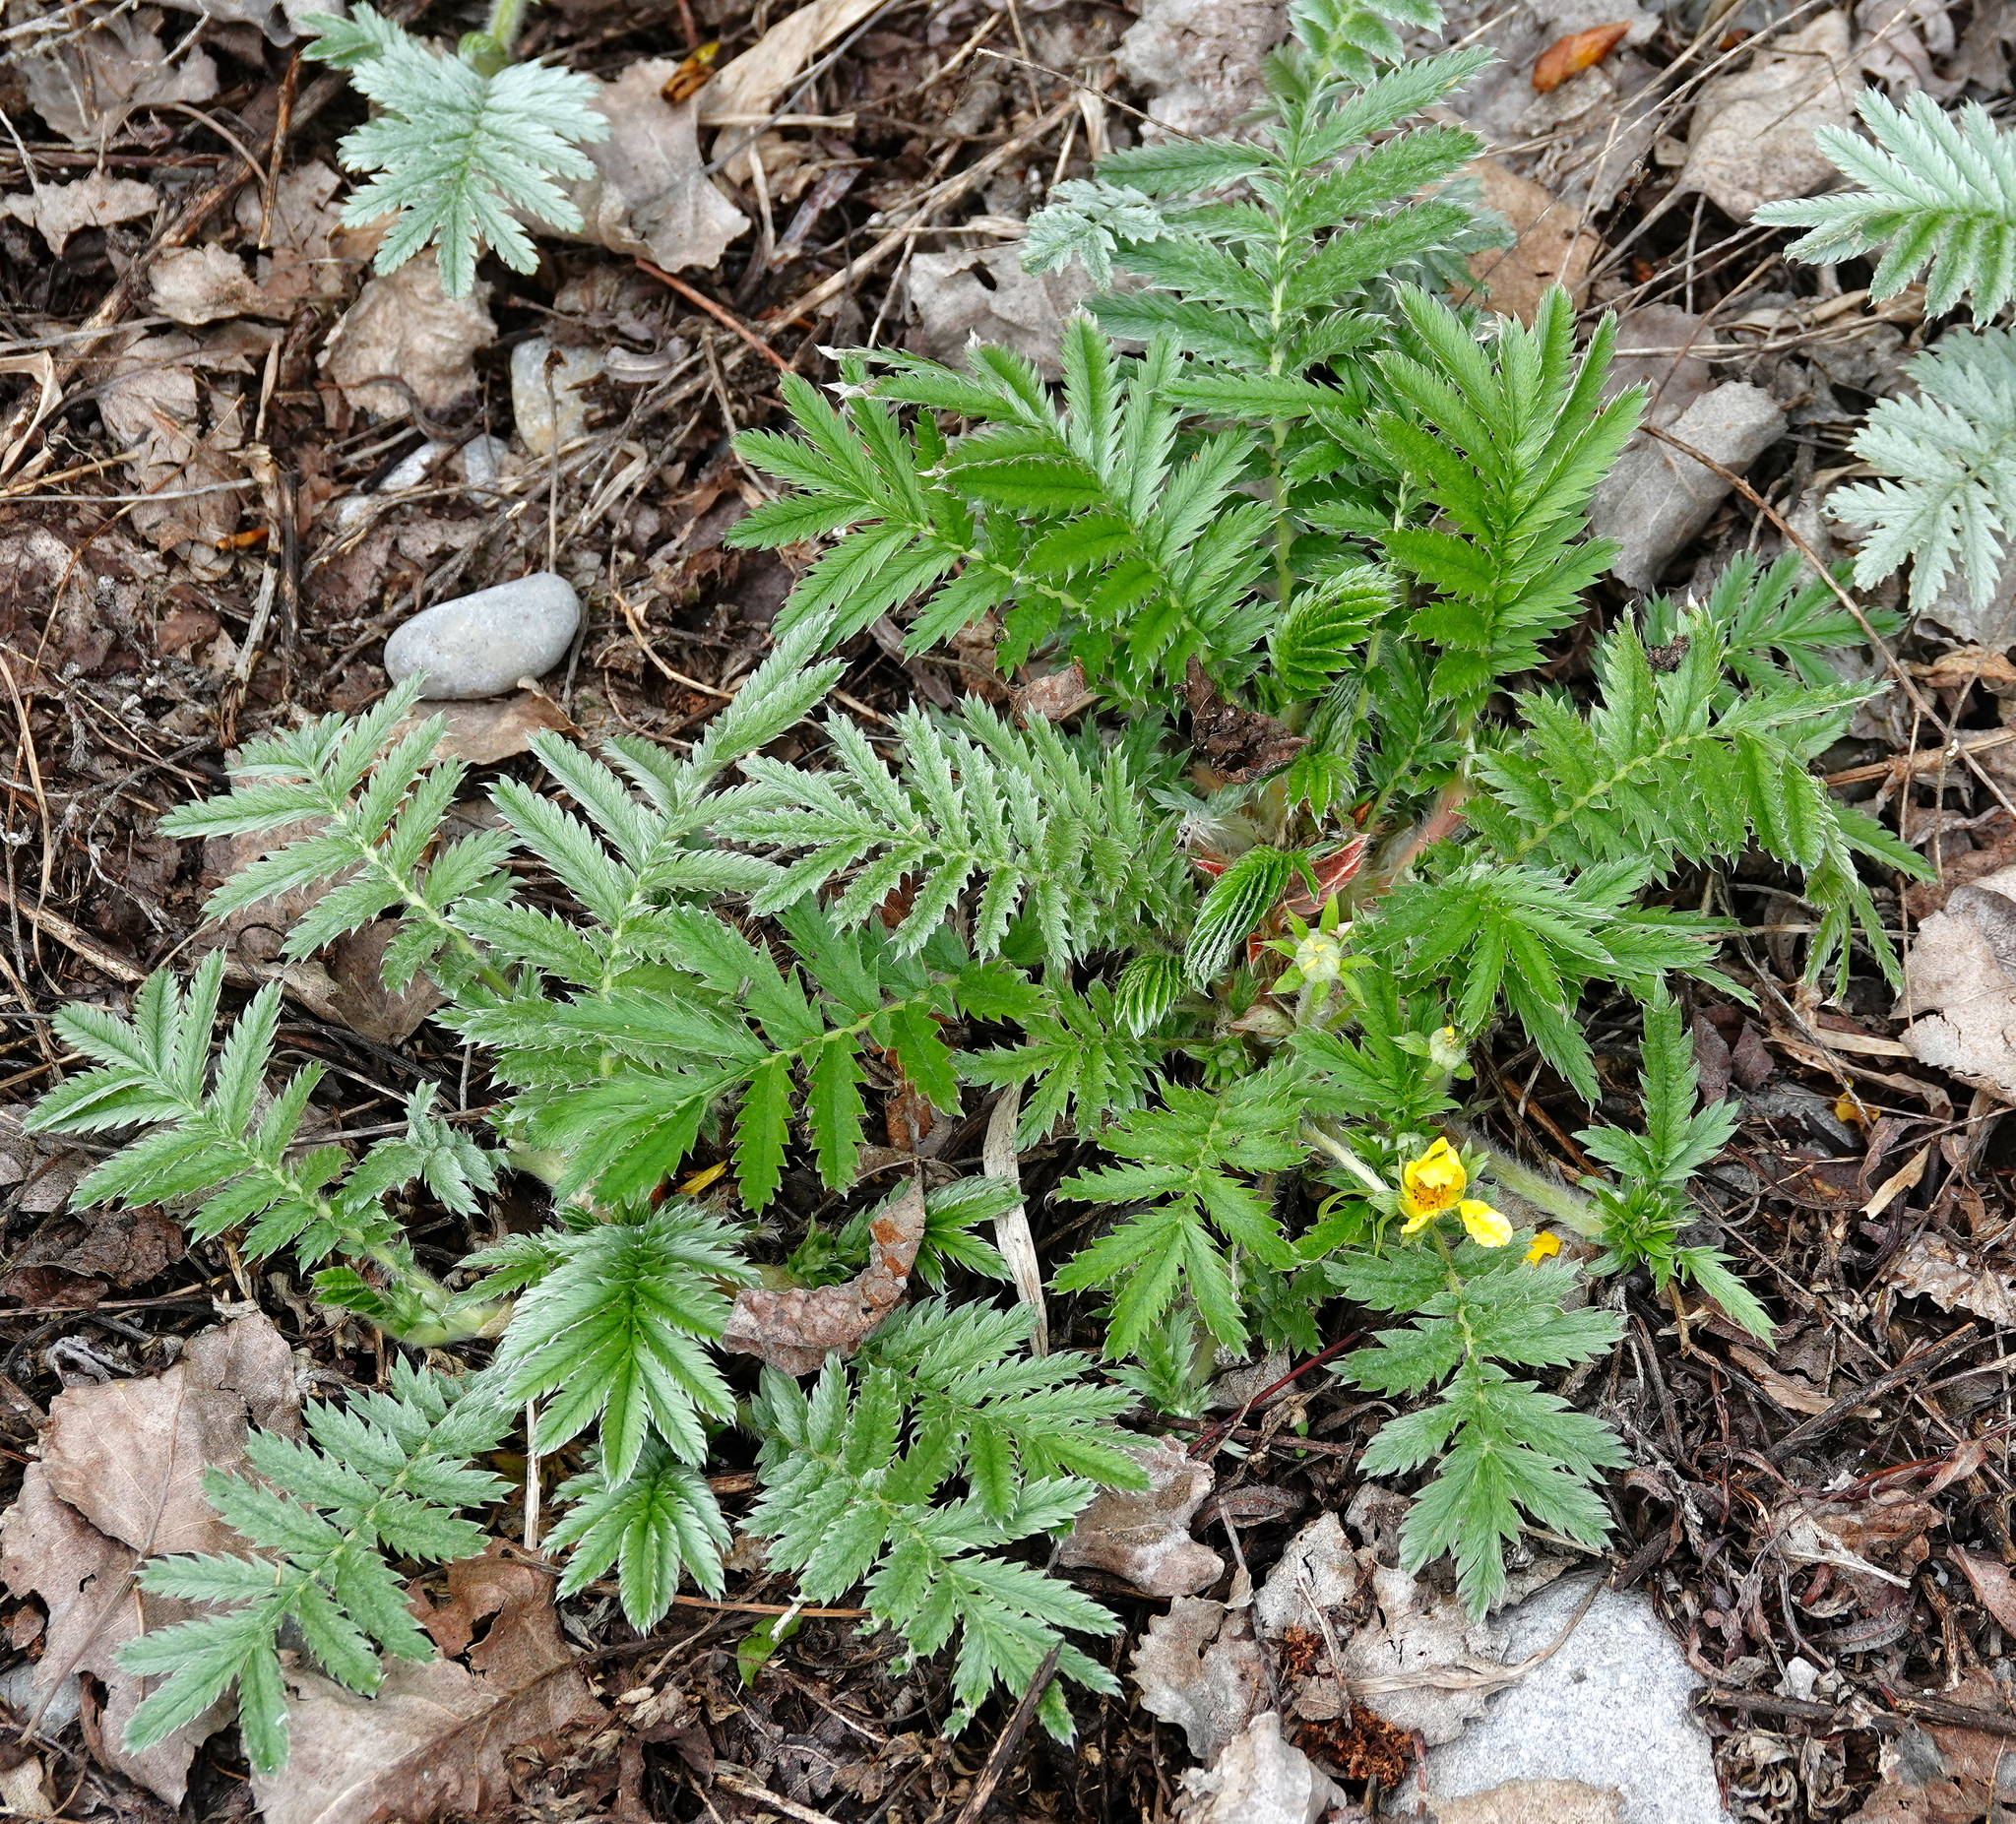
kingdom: Plantae
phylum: Tracheophyta
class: Magnoliopsida
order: Rosales
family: Rosaceae
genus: Argentina
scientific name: Argentina anserina
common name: Common silverweed
